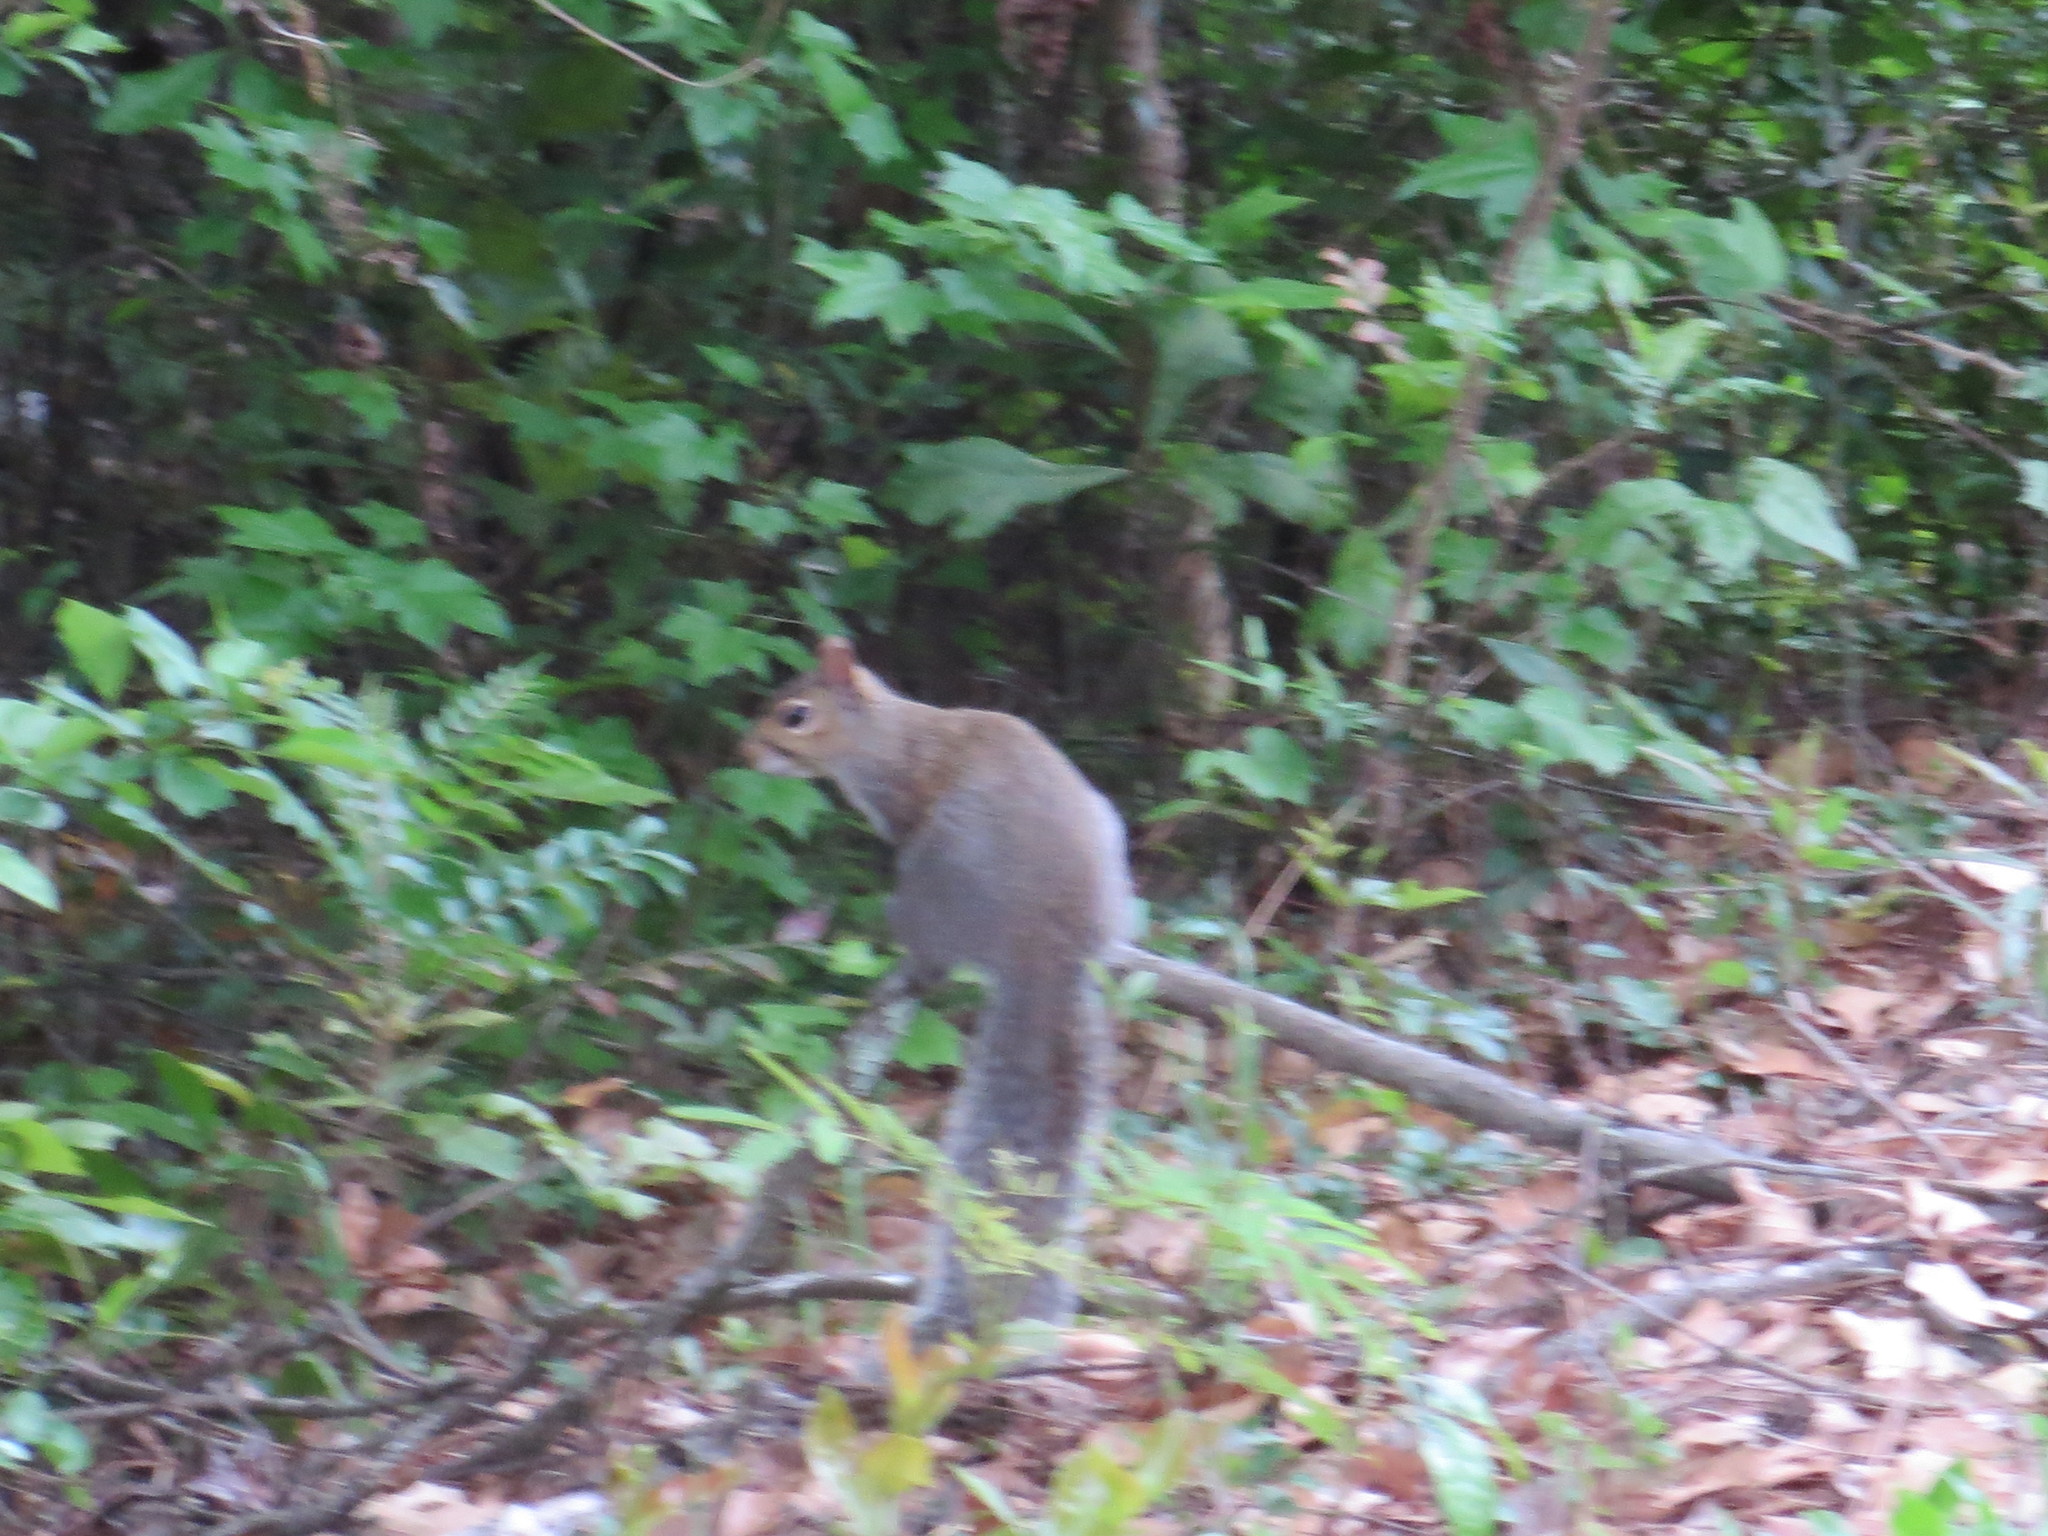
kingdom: Animalia
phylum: Chordata
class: Mammalia
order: Rodentia
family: Sciuridae
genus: Sciurus
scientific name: Sciurus carolinensis
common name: Eastern gray squirrel
